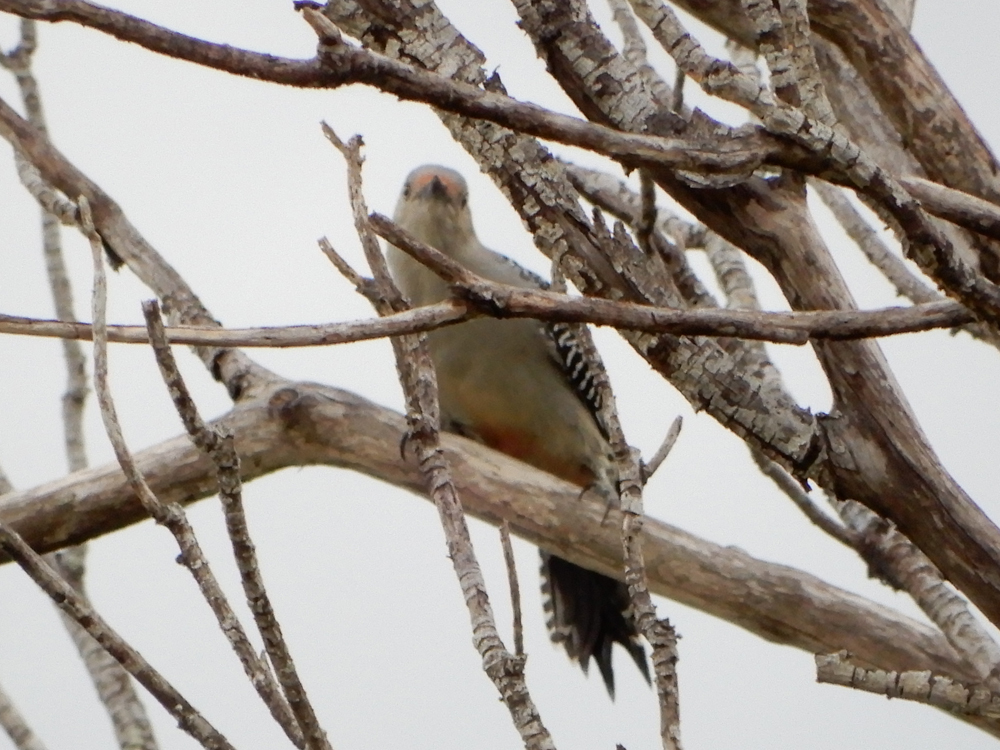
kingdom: Animalia
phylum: Chordata
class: Aves
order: Piciformes
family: Picidae
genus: Melanerpes
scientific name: Melanerpes carolinus
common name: Red-bellied woodpecker
